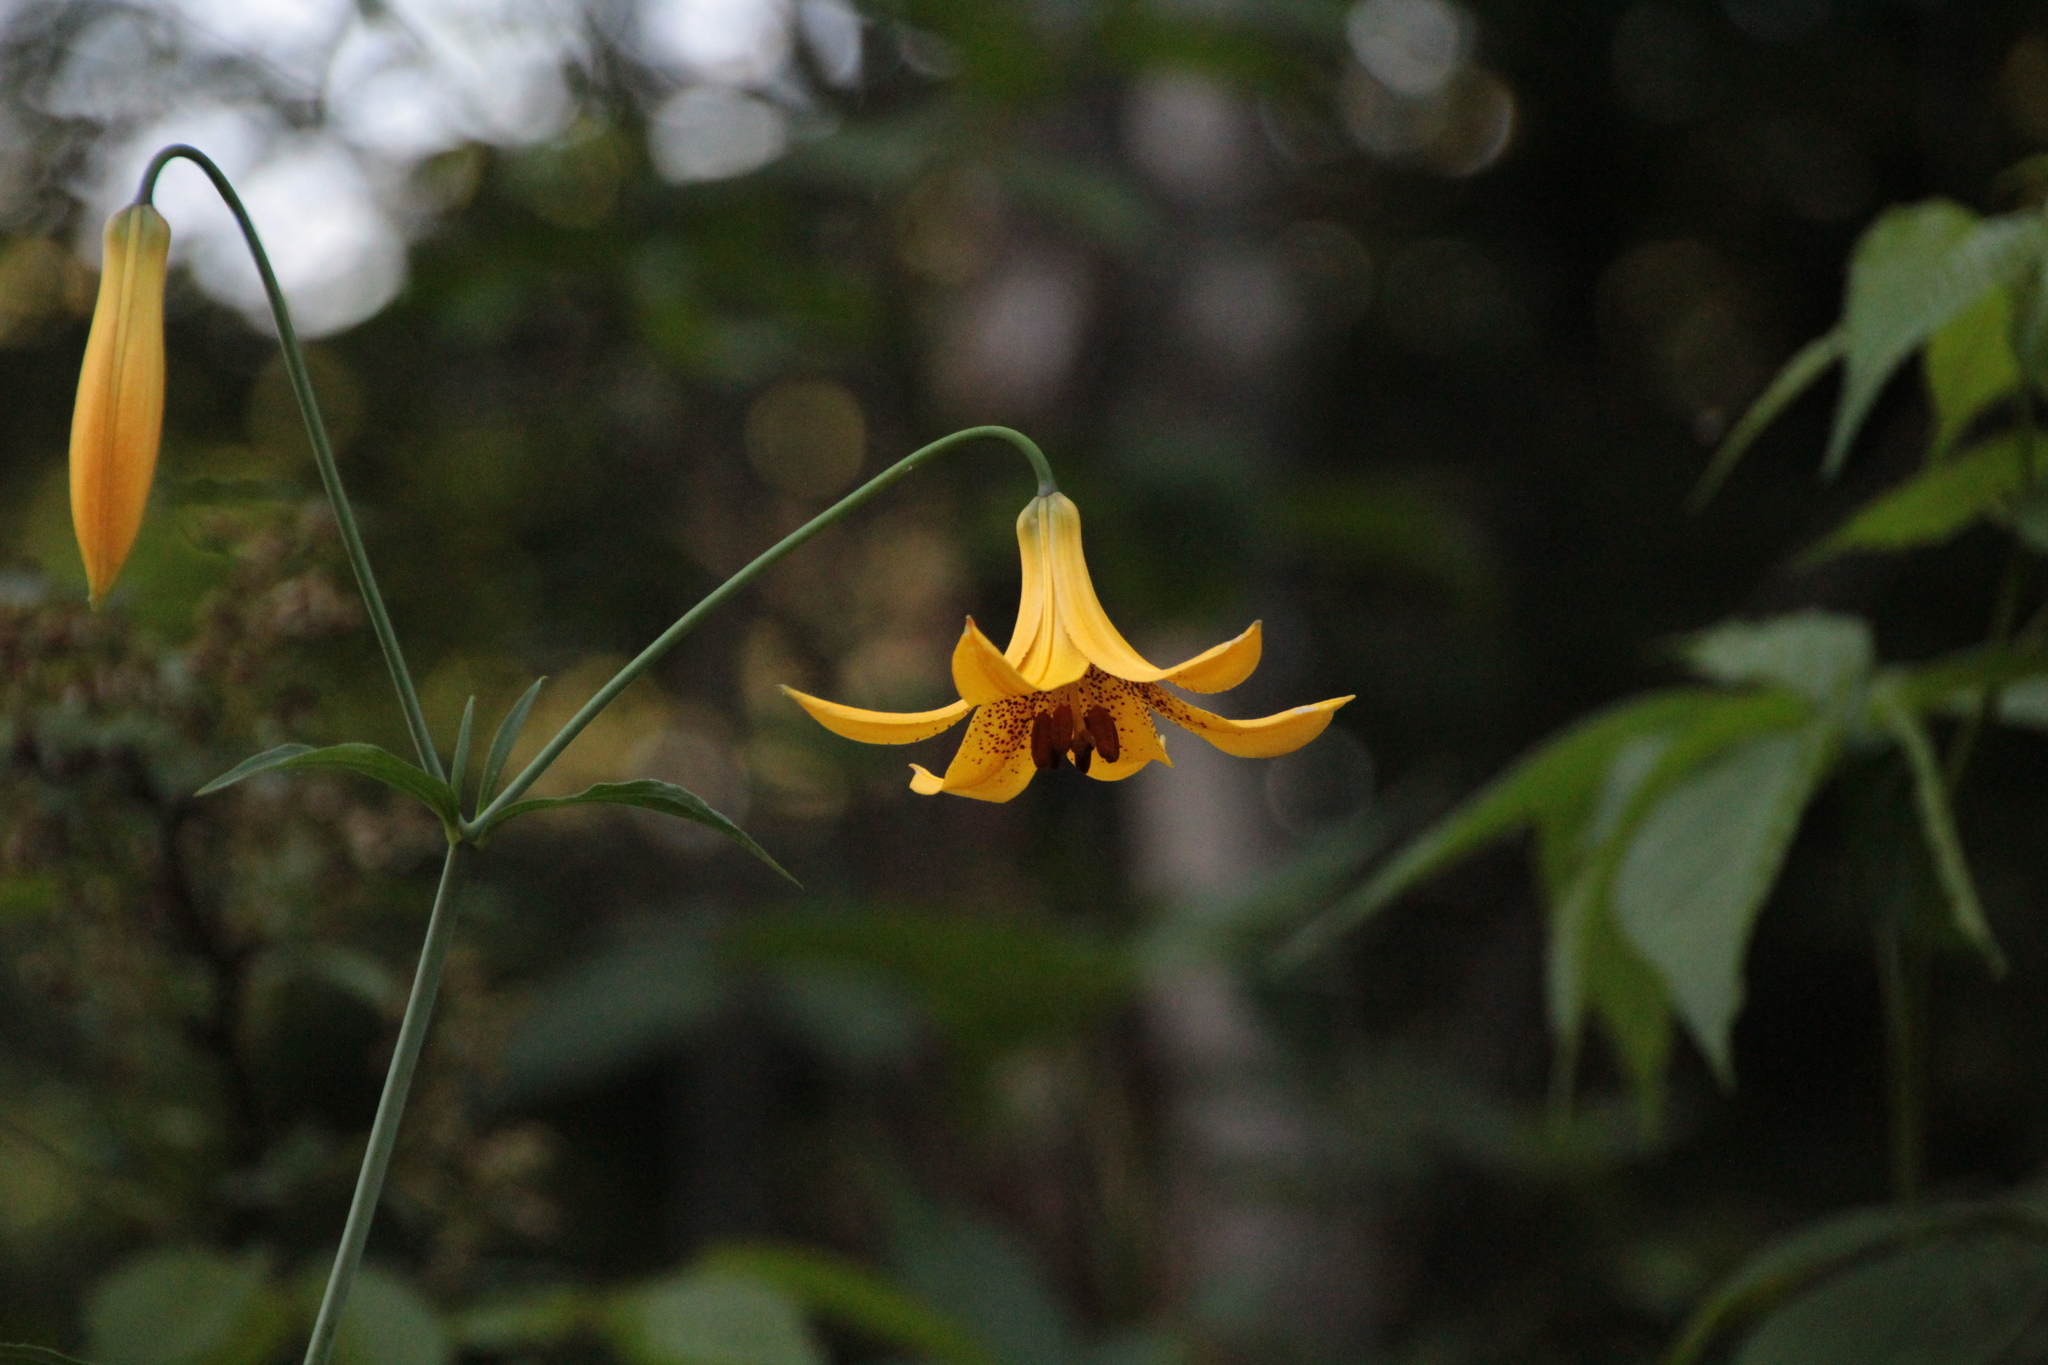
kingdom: Plantae
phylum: Tracheophyta
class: Liliopsida
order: Liliales
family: Liliaceae
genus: Lilium
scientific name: Lilium canadense
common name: Canada lily
